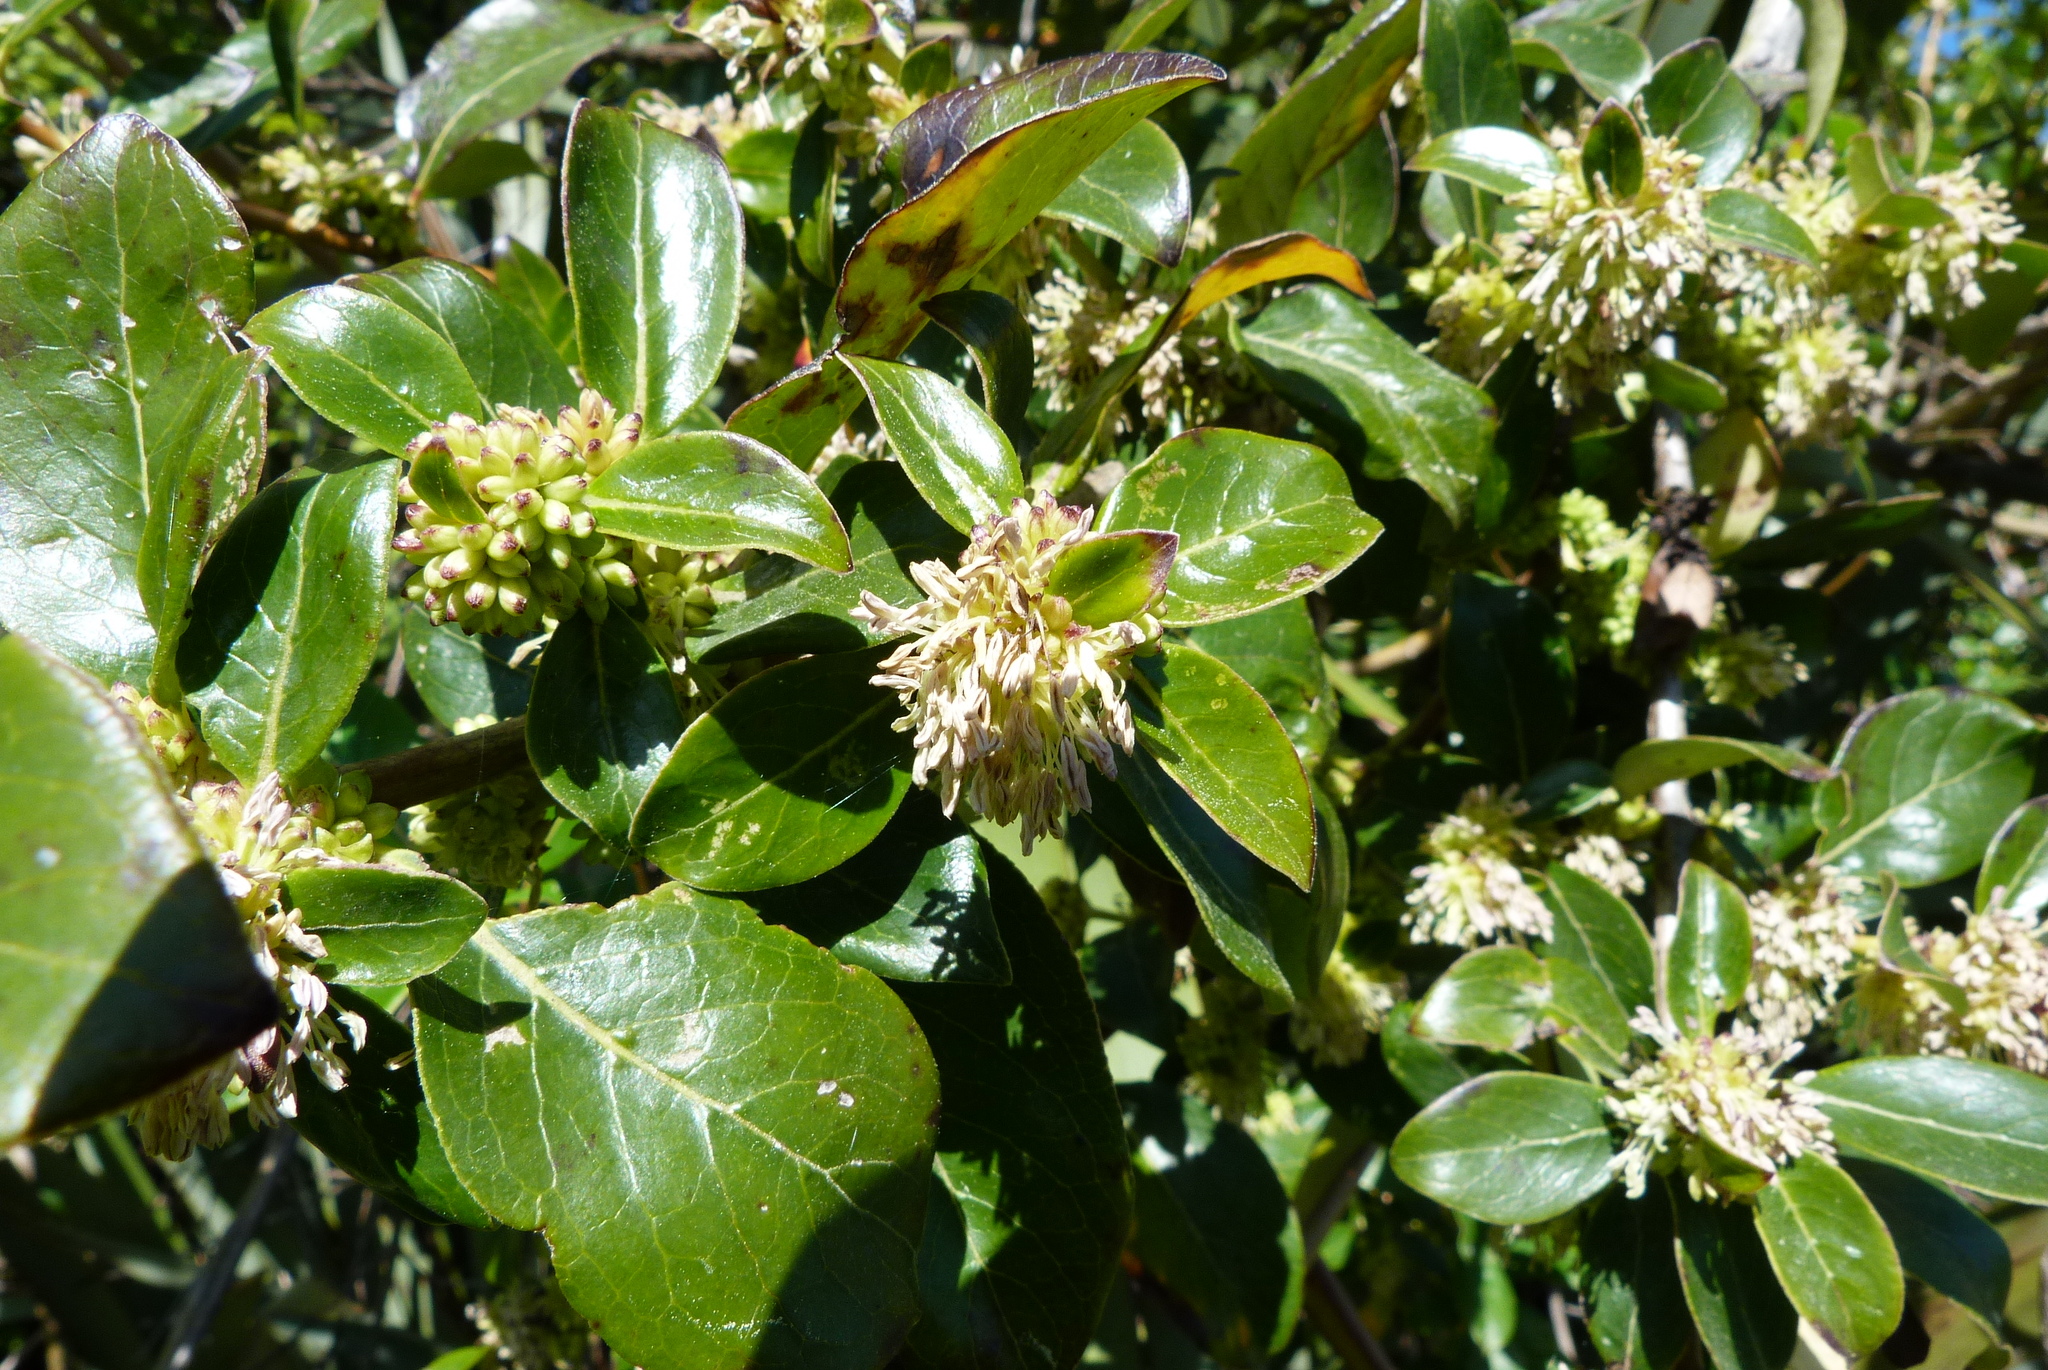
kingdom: Plantae
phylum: Tracheophyta
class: Magnoliopsida
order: Gentianales
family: Rubiaceae
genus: Coprosma
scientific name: Coprosma robusta
